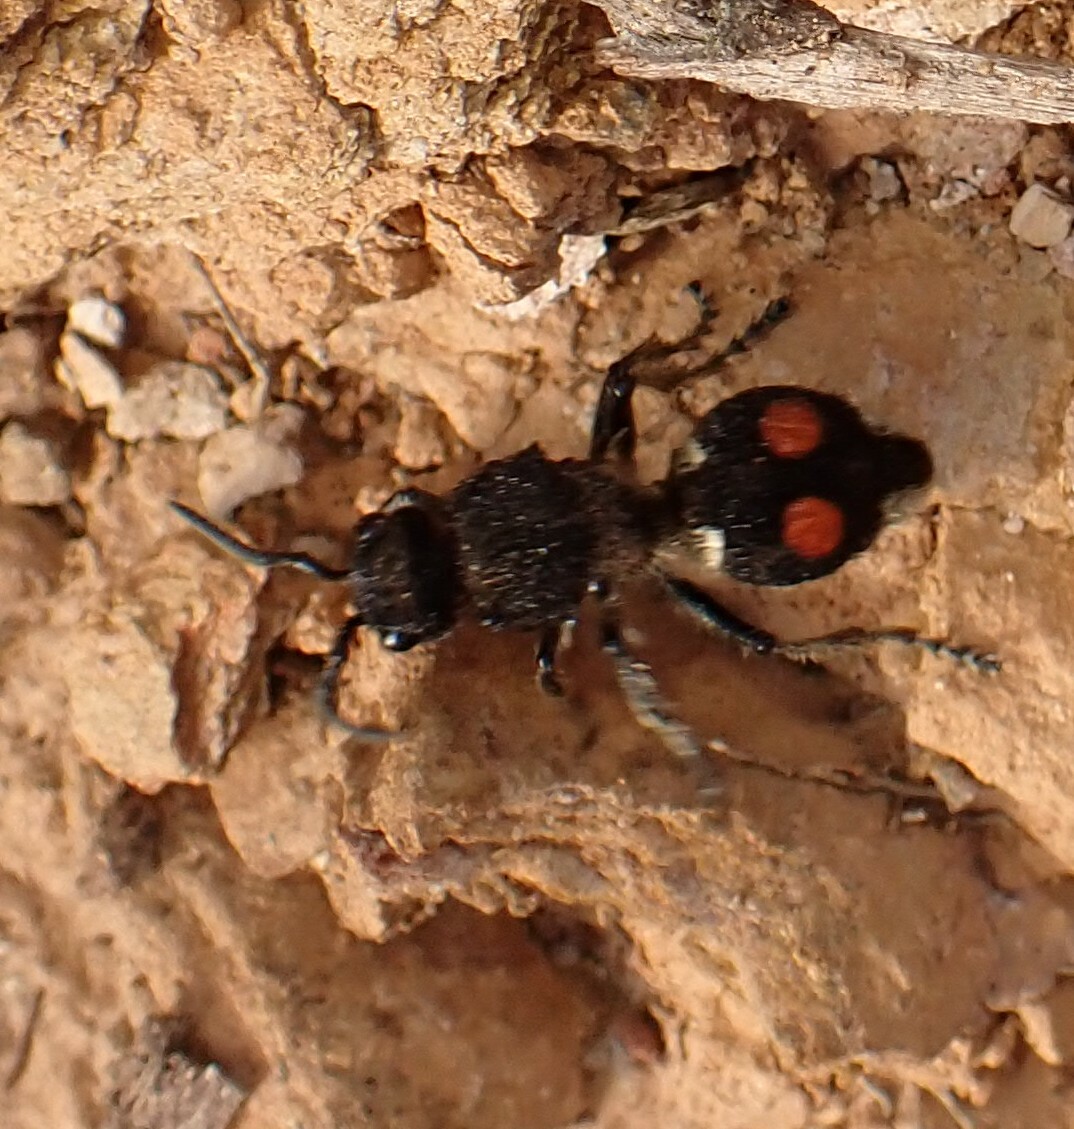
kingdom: Animalia
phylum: Arthropoda
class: Insecta
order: Hymenoptera
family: Mutillidae
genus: Hoplomutilla
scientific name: Hoplomutilla
